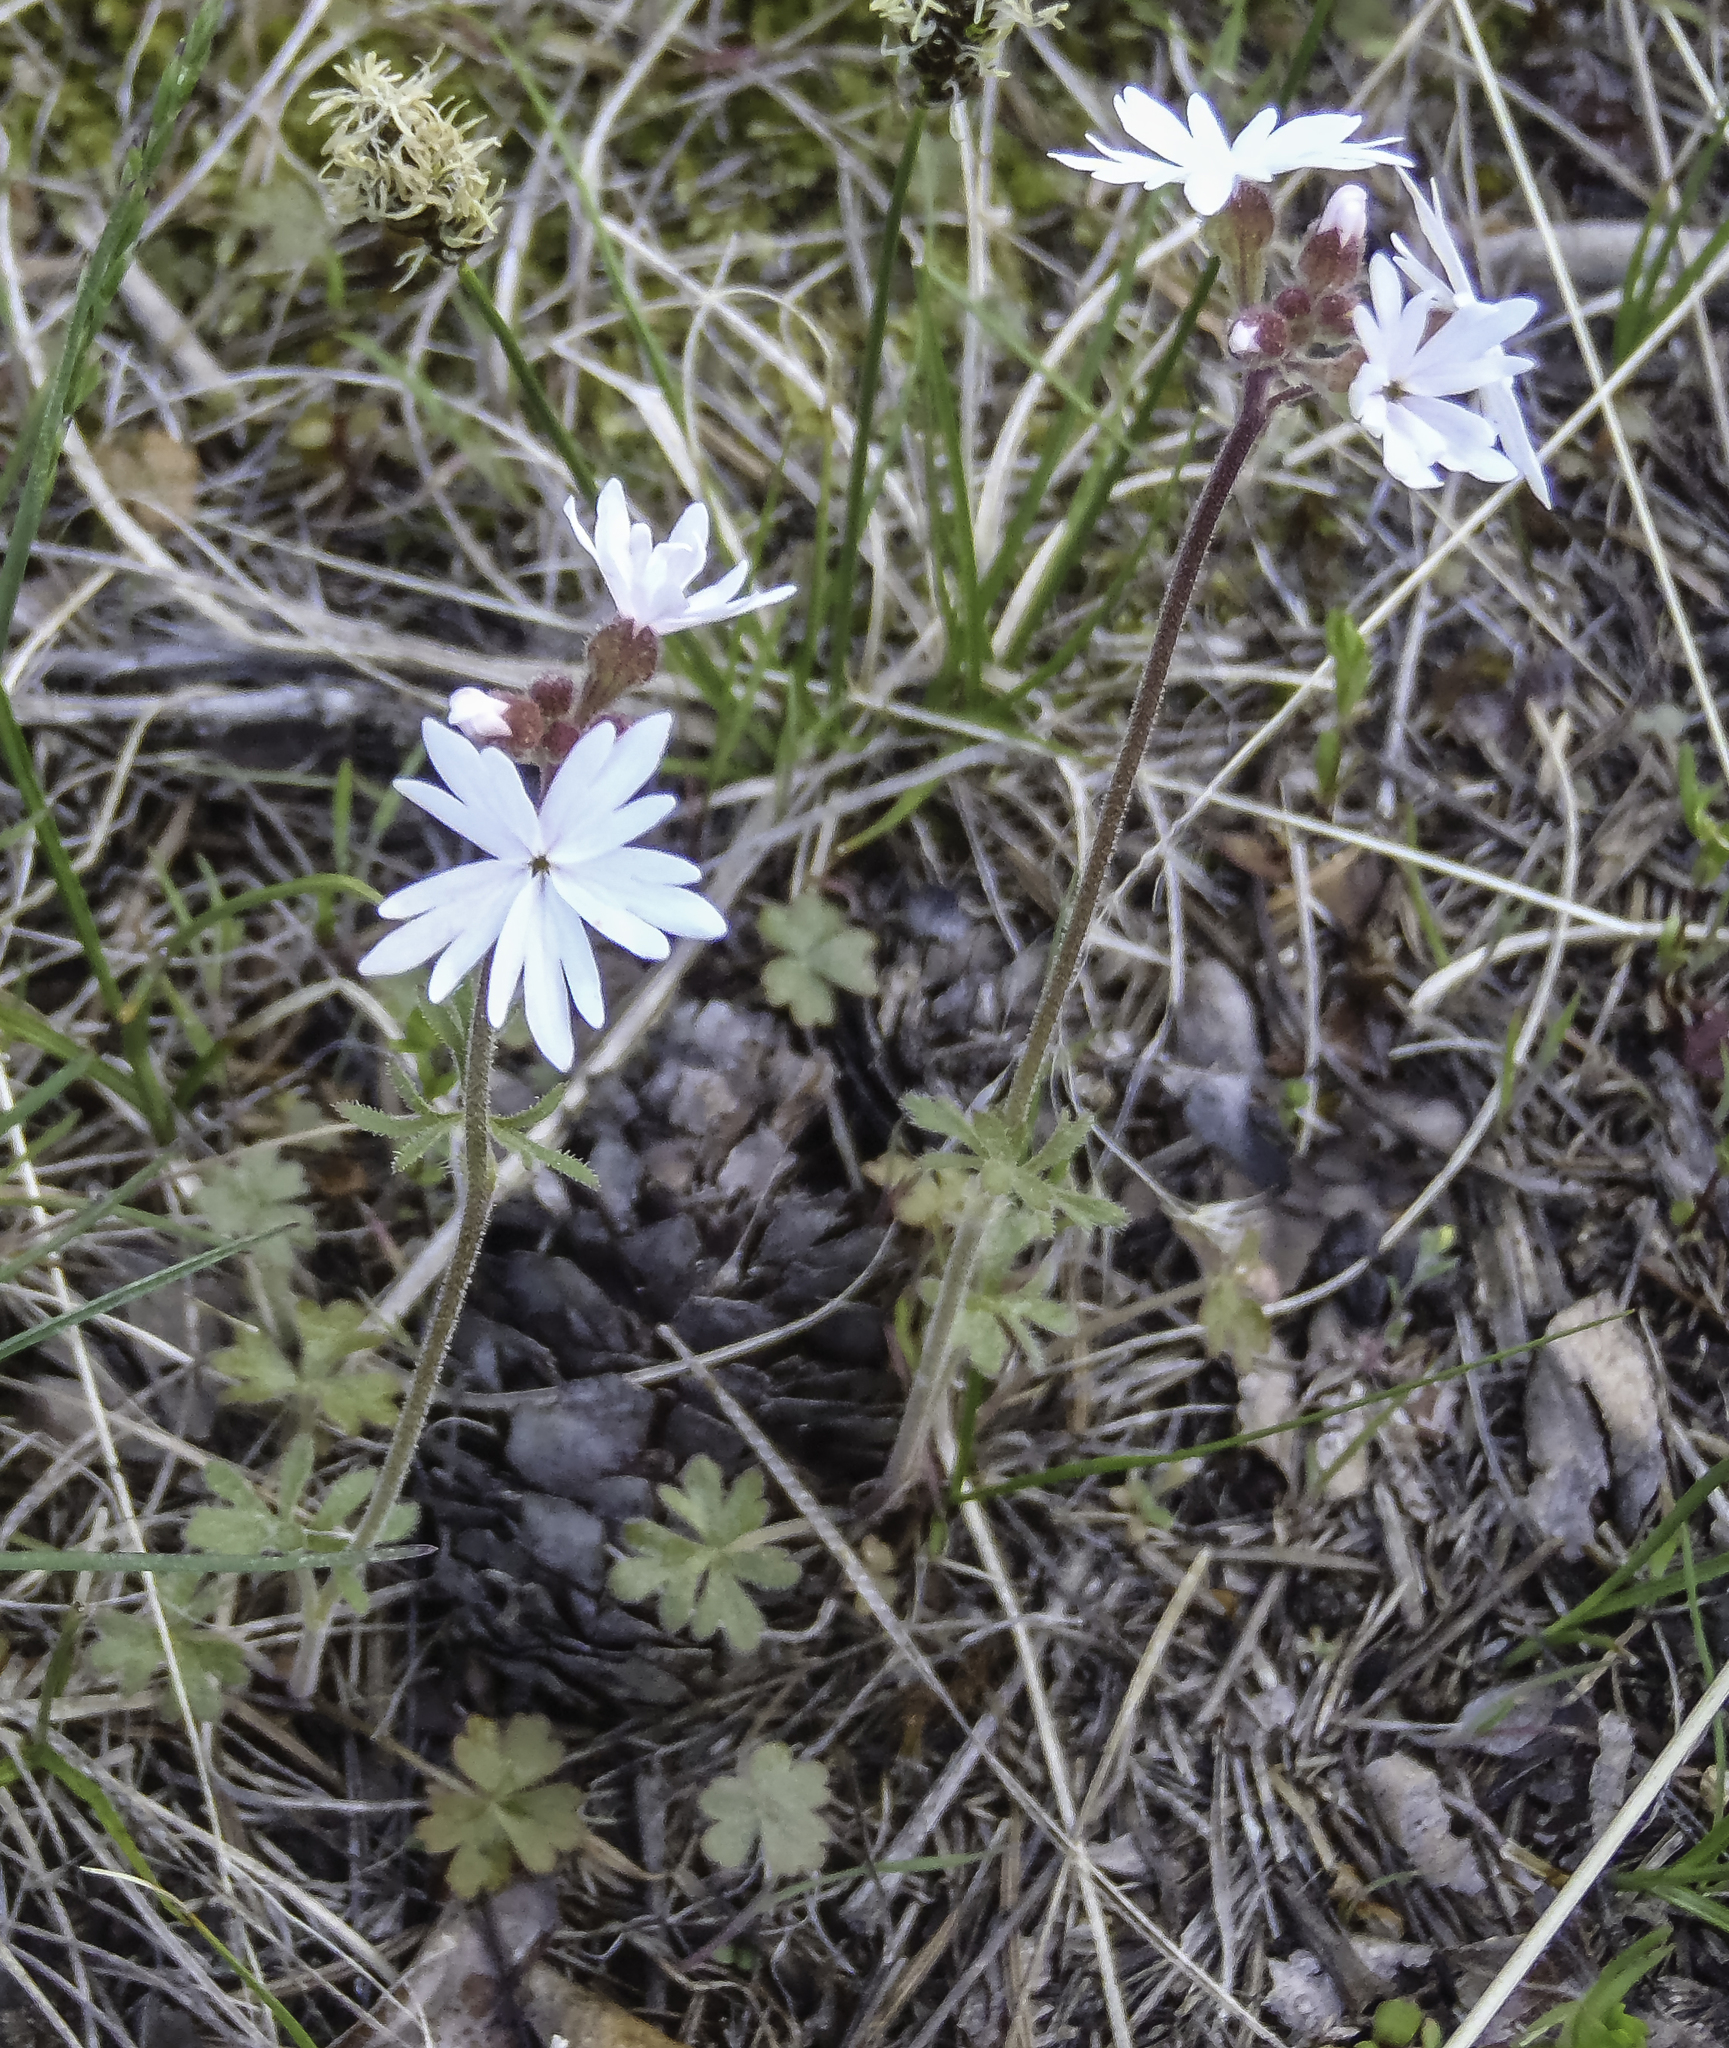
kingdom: Plantae
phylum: Tracheophyta
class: Magnoliopsida
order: Saxifragales
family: Saxifragaceae
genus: Lithophragma
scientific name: Lithophragma parviflorum
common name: Small-flowered fringe-cup
